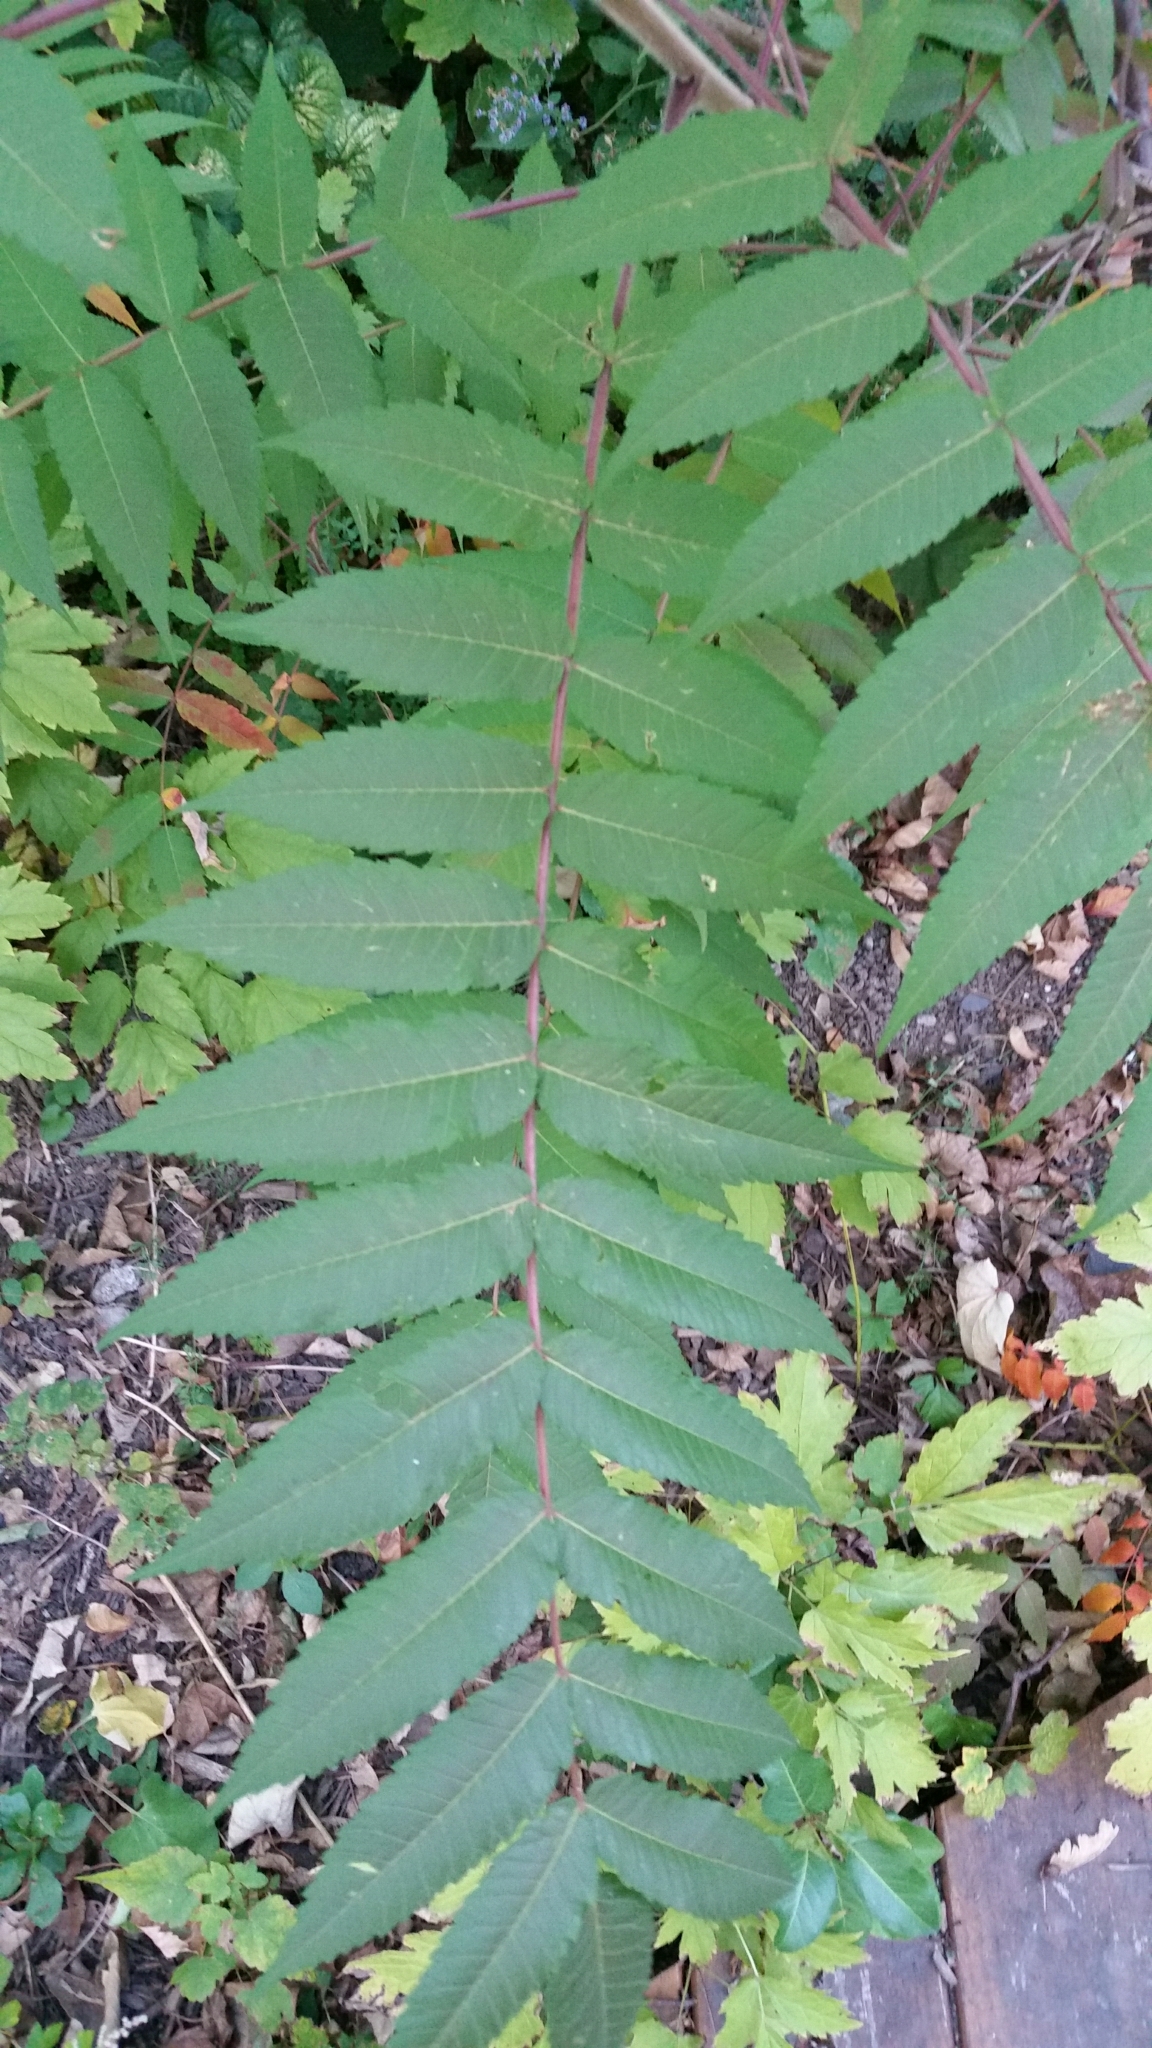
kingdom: Plantae
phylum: Tracheophyta
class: Magnoliopsida
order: Sapindales
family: Anacardiaceae
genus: Rhus
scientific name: Rhus typhina
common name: Staghorn sumac
